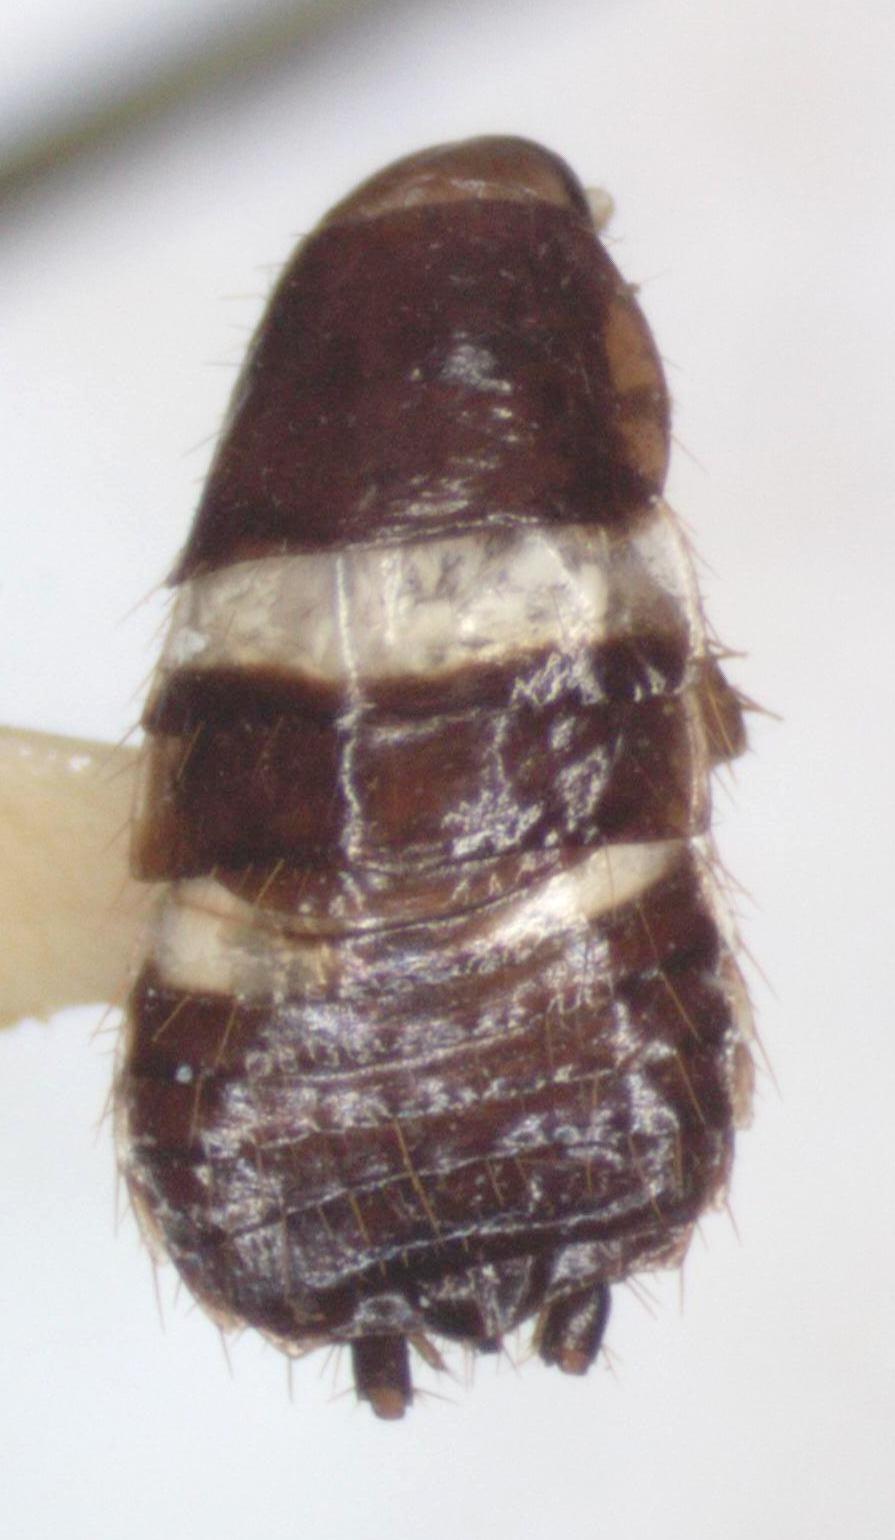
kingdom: Animalia
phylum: Arthropoda
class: Insecta
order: Blattodea
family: Anaplectidae
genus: Anaplecta
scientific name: Anaplecta fallax
